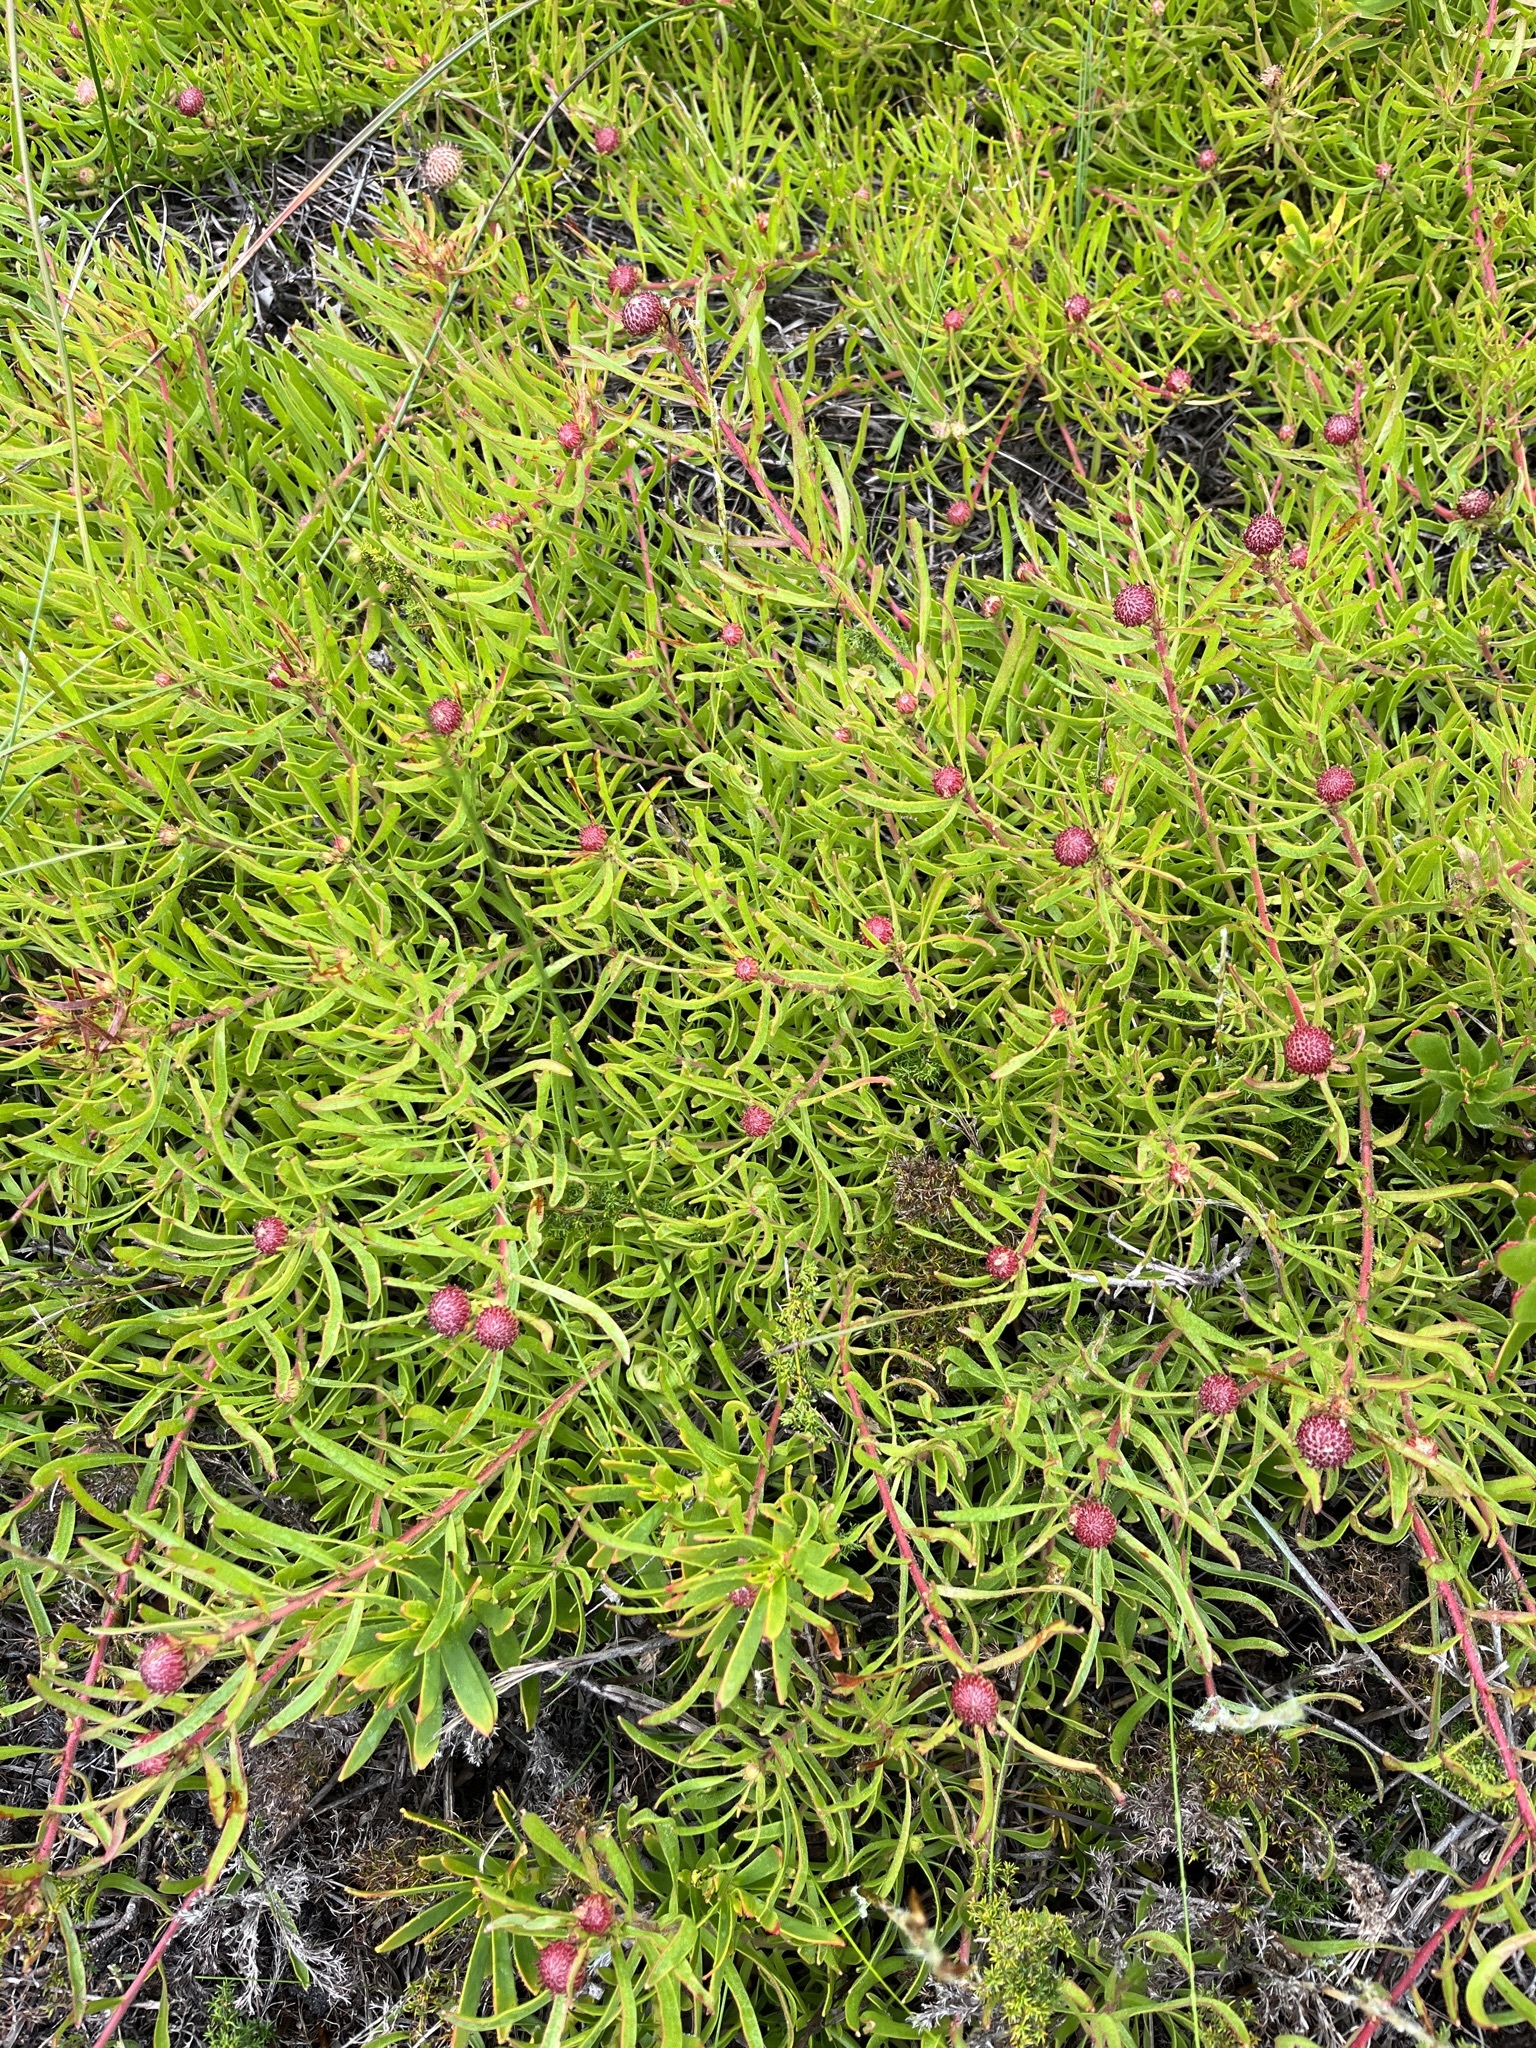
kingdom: Plantae
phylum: Tracheophyta
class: Magnoliopsida
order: Proteales
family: Proteaceae
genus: Leucospermum
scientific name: Leucospermum pedunculatum
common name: White-trailing pincushion
